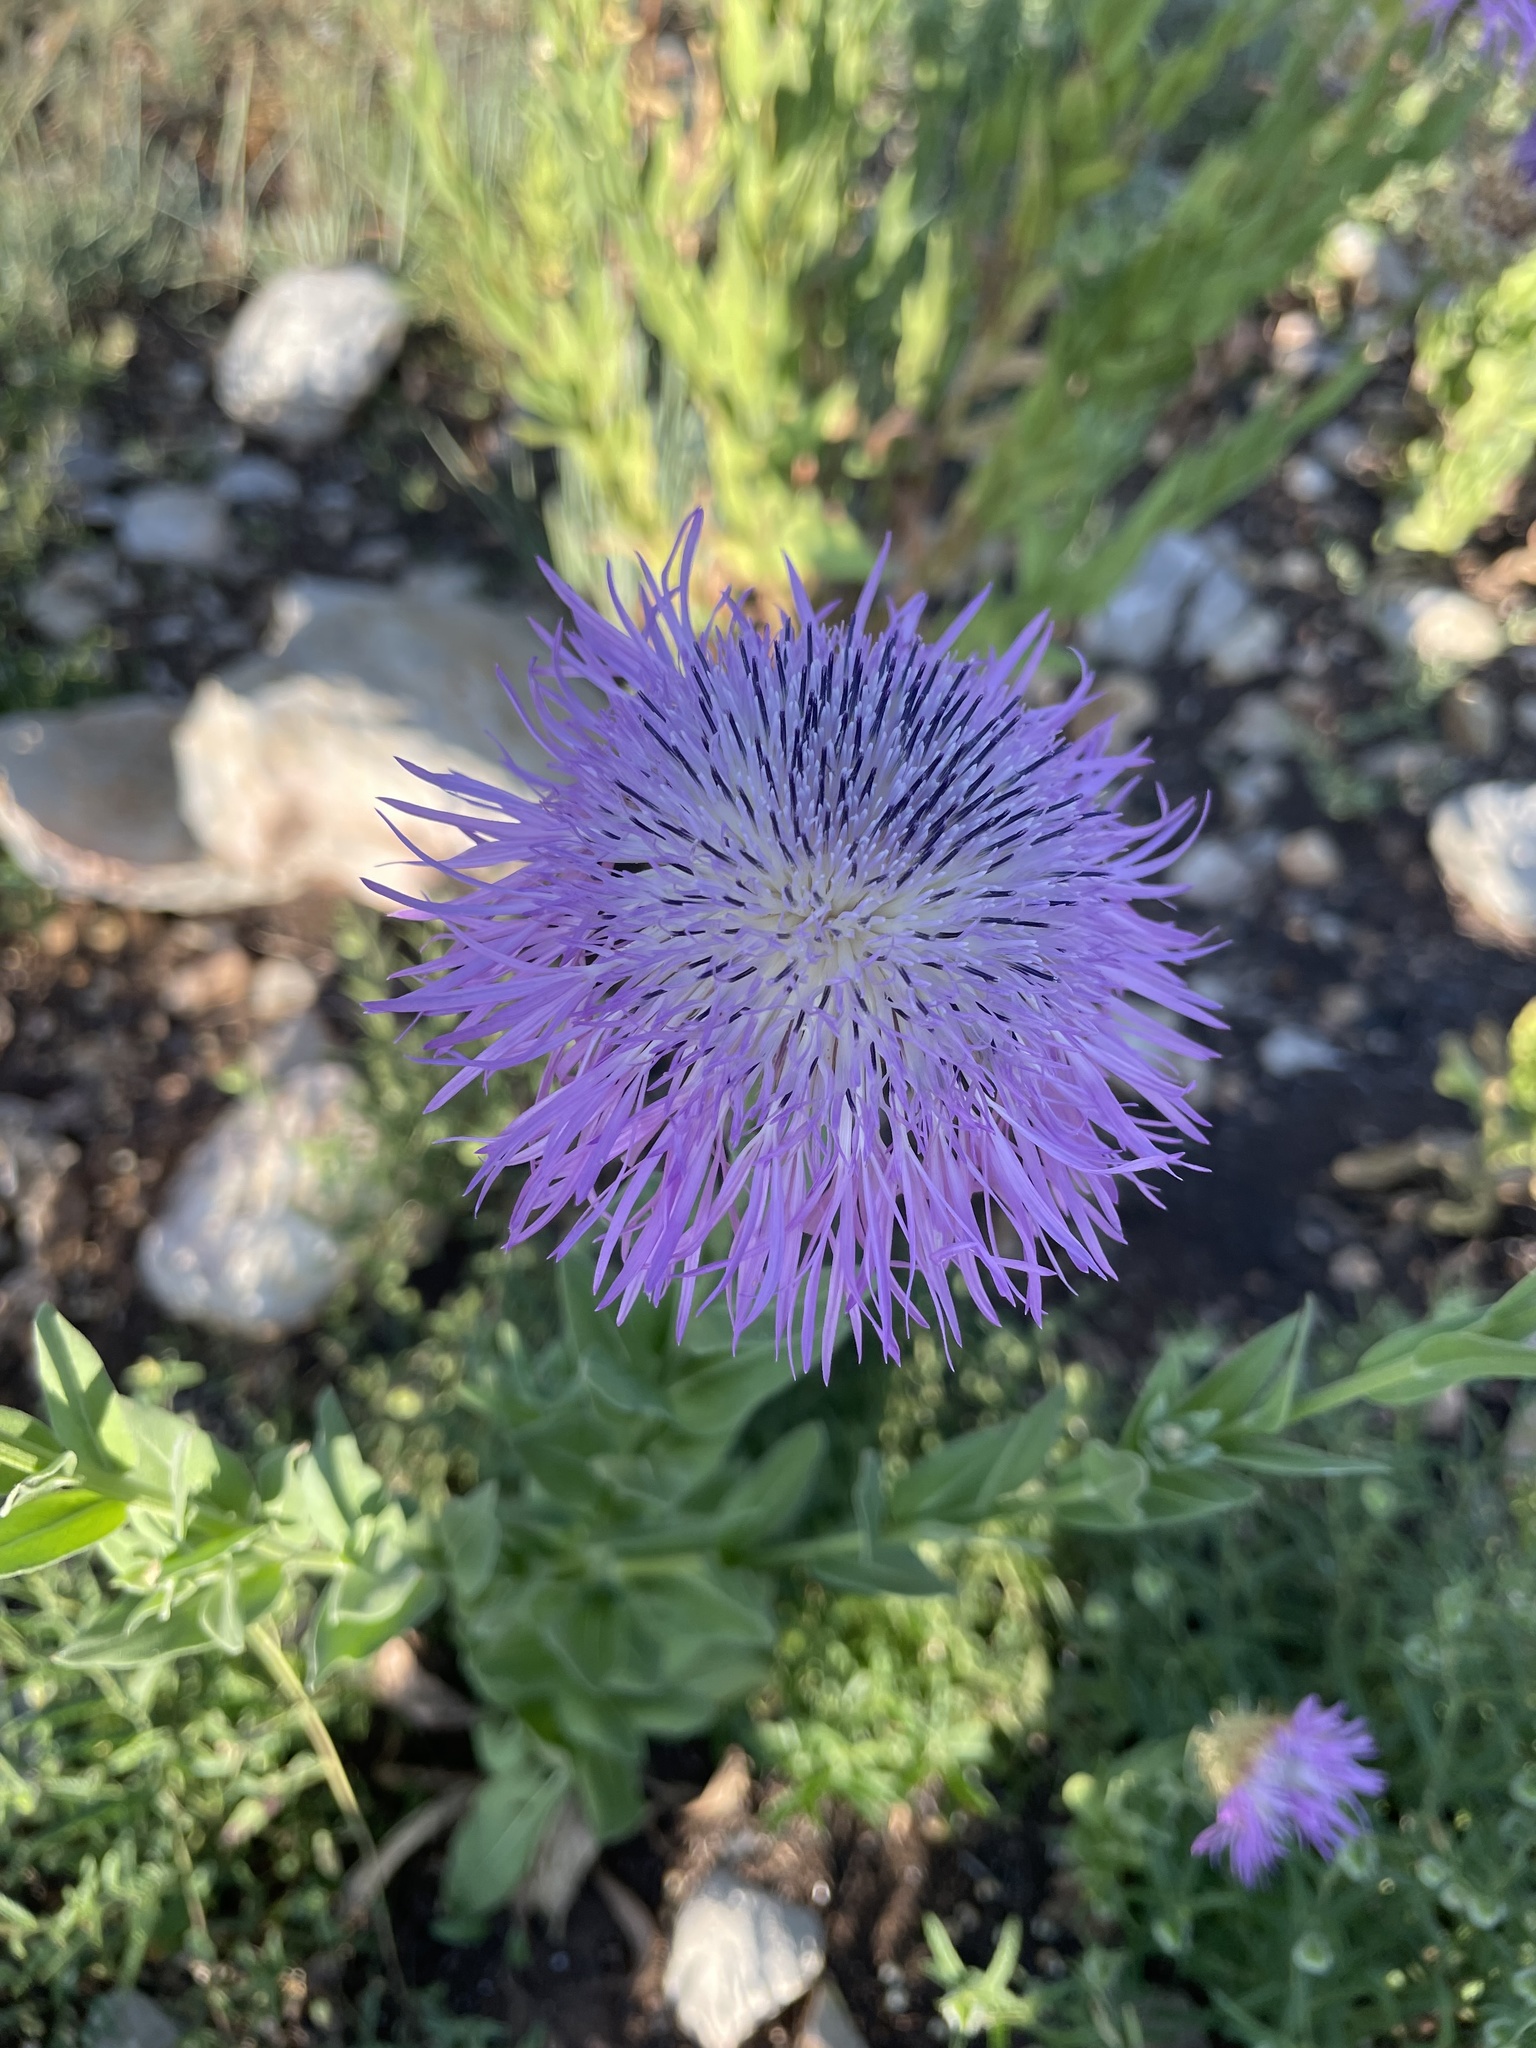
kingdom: Plantae
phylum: Tracheophyta
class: Magnoliopsida
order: Asterales
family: Asteraceae
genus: Plectocephalus
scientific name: Plectocephalus americanus
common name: American basket-flower
